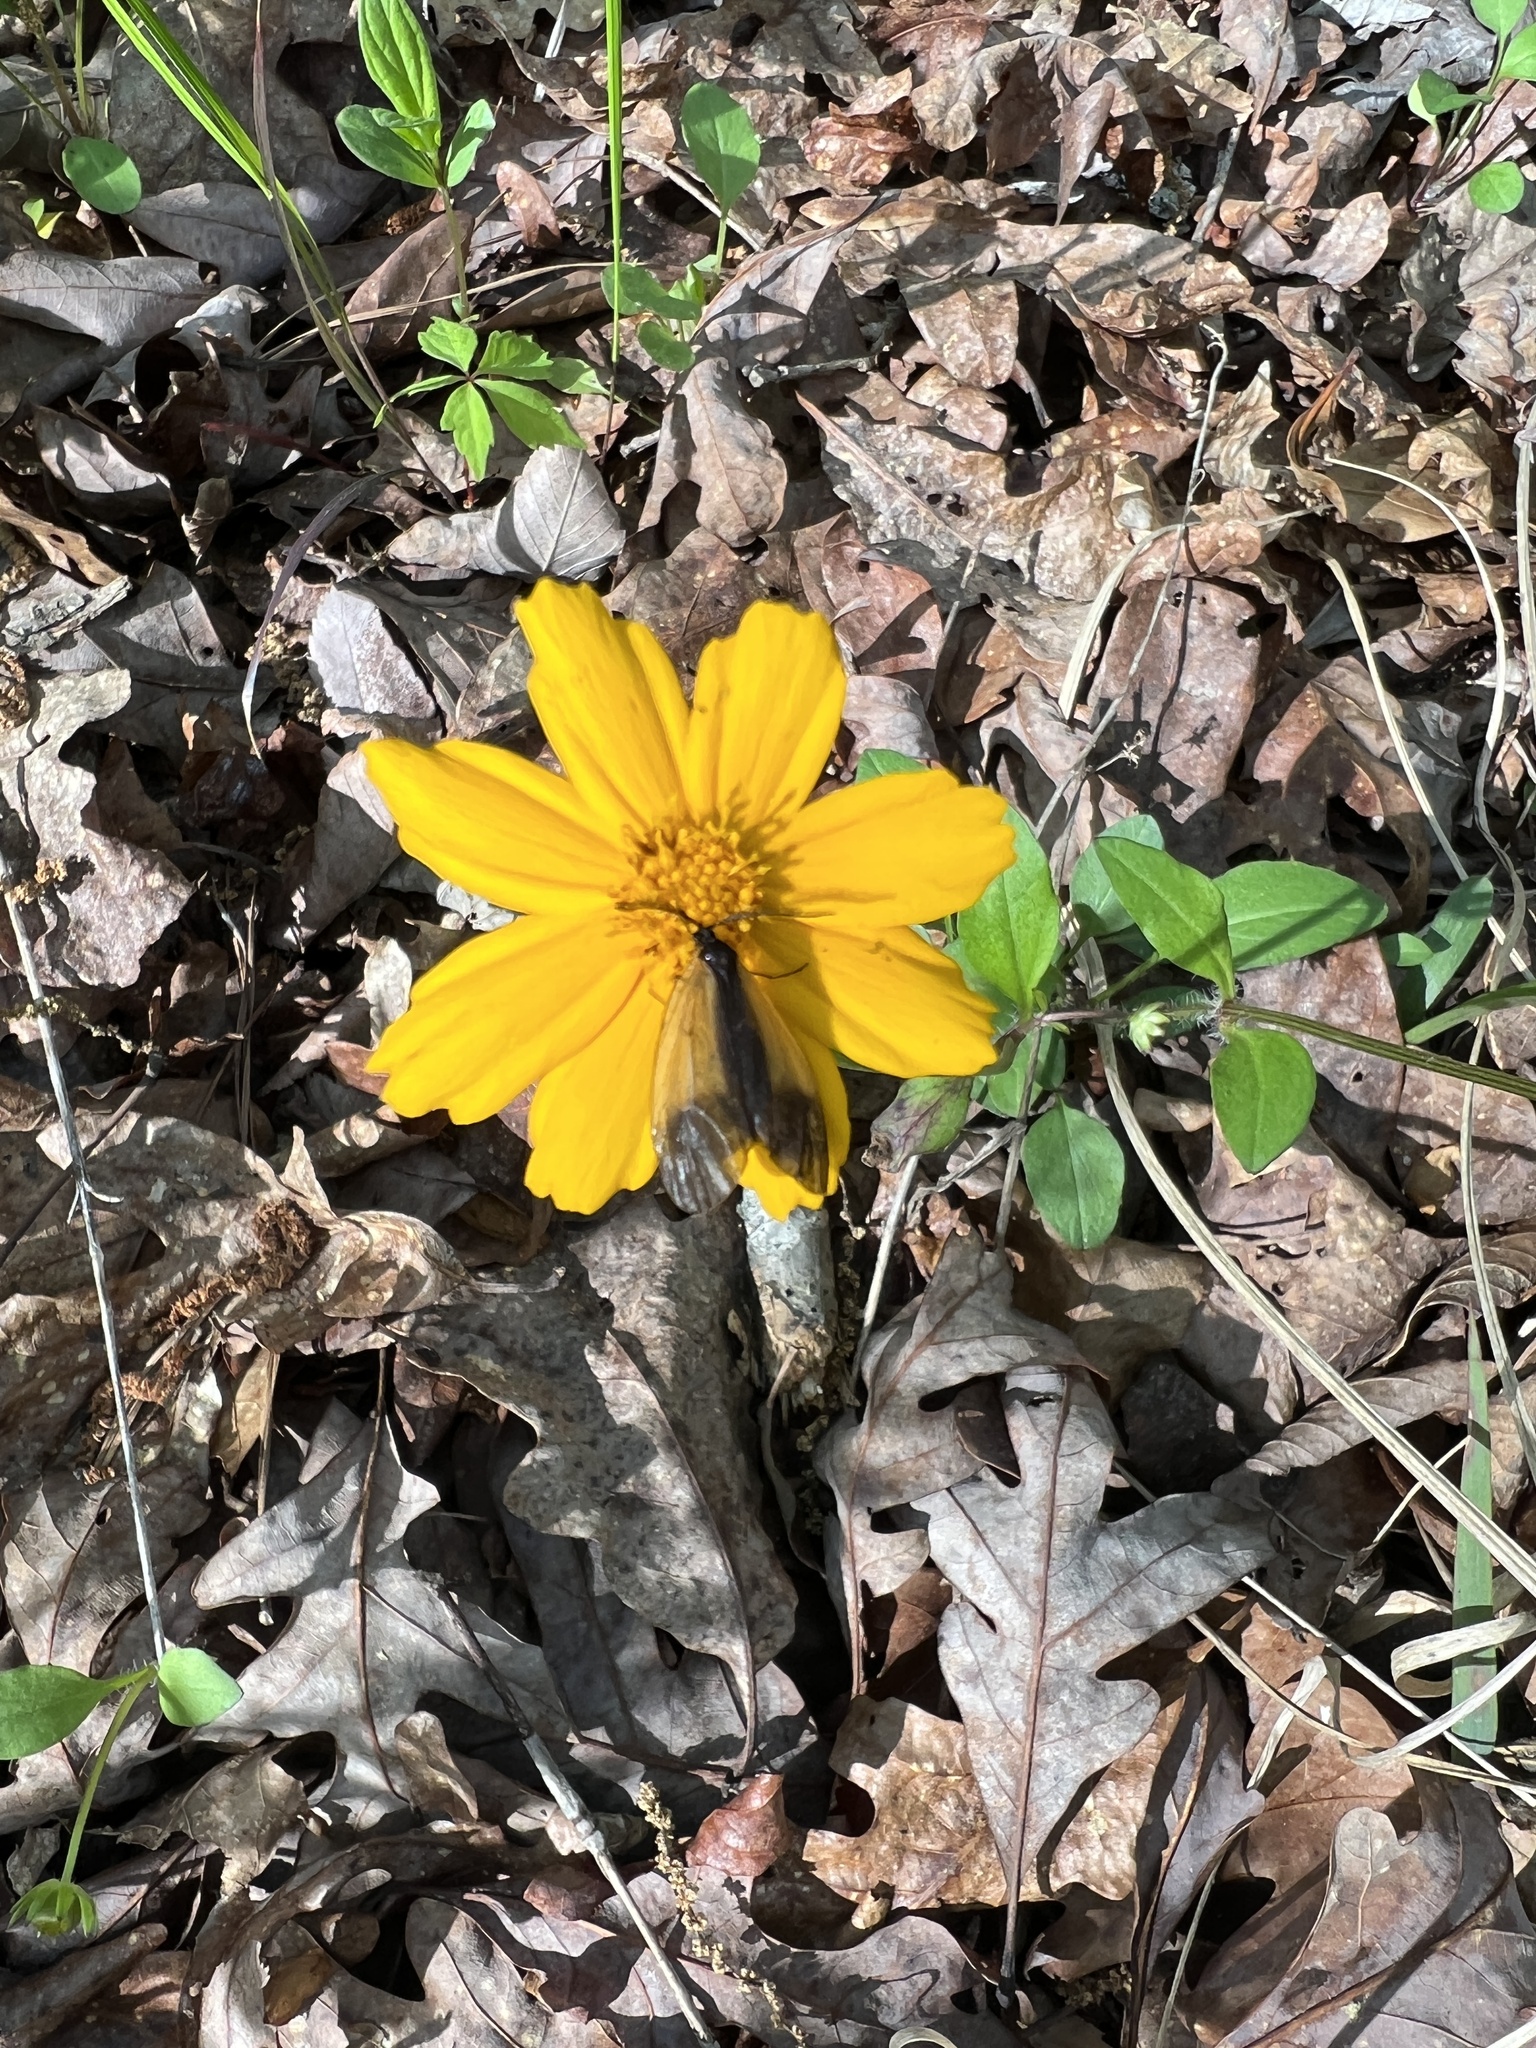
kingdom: Animalia
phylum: Arthropoda
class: Insecta
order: Lepidoptera
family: Zygaenidae
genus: Malthaca
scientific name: Malthaca dimidiata
